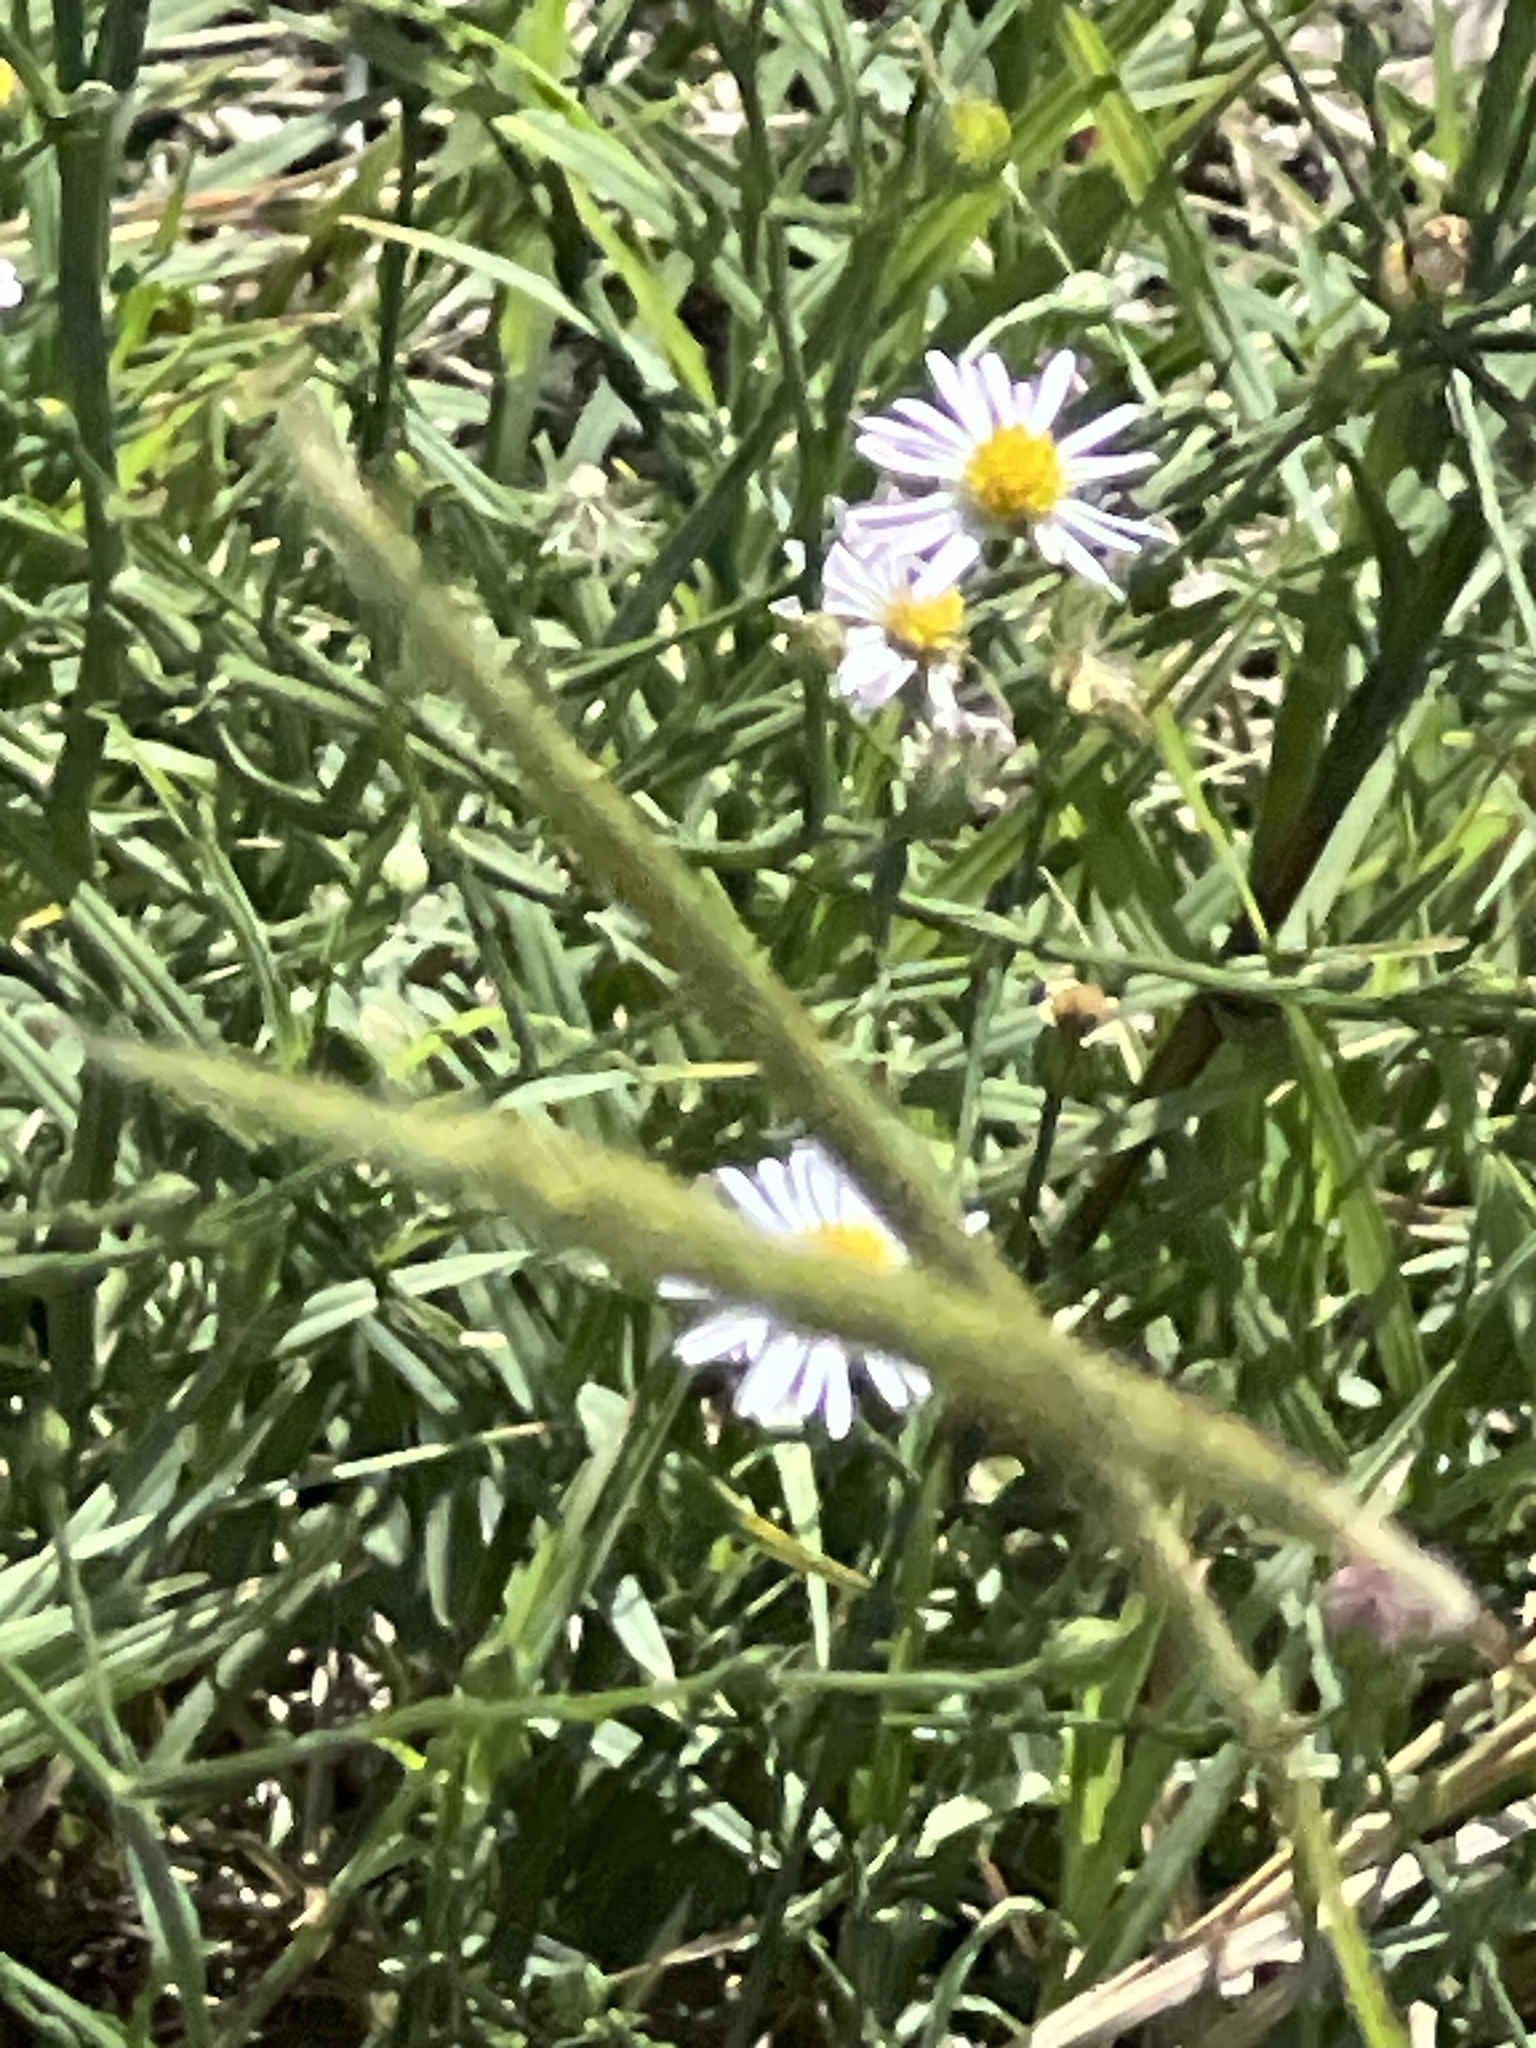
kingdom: Plantae
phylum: Tracheophyta
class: Magnoliopsida
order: Asterales
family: Asteraceae
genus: Symphyotrichum
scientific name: Symphyotrichum divaricatum
